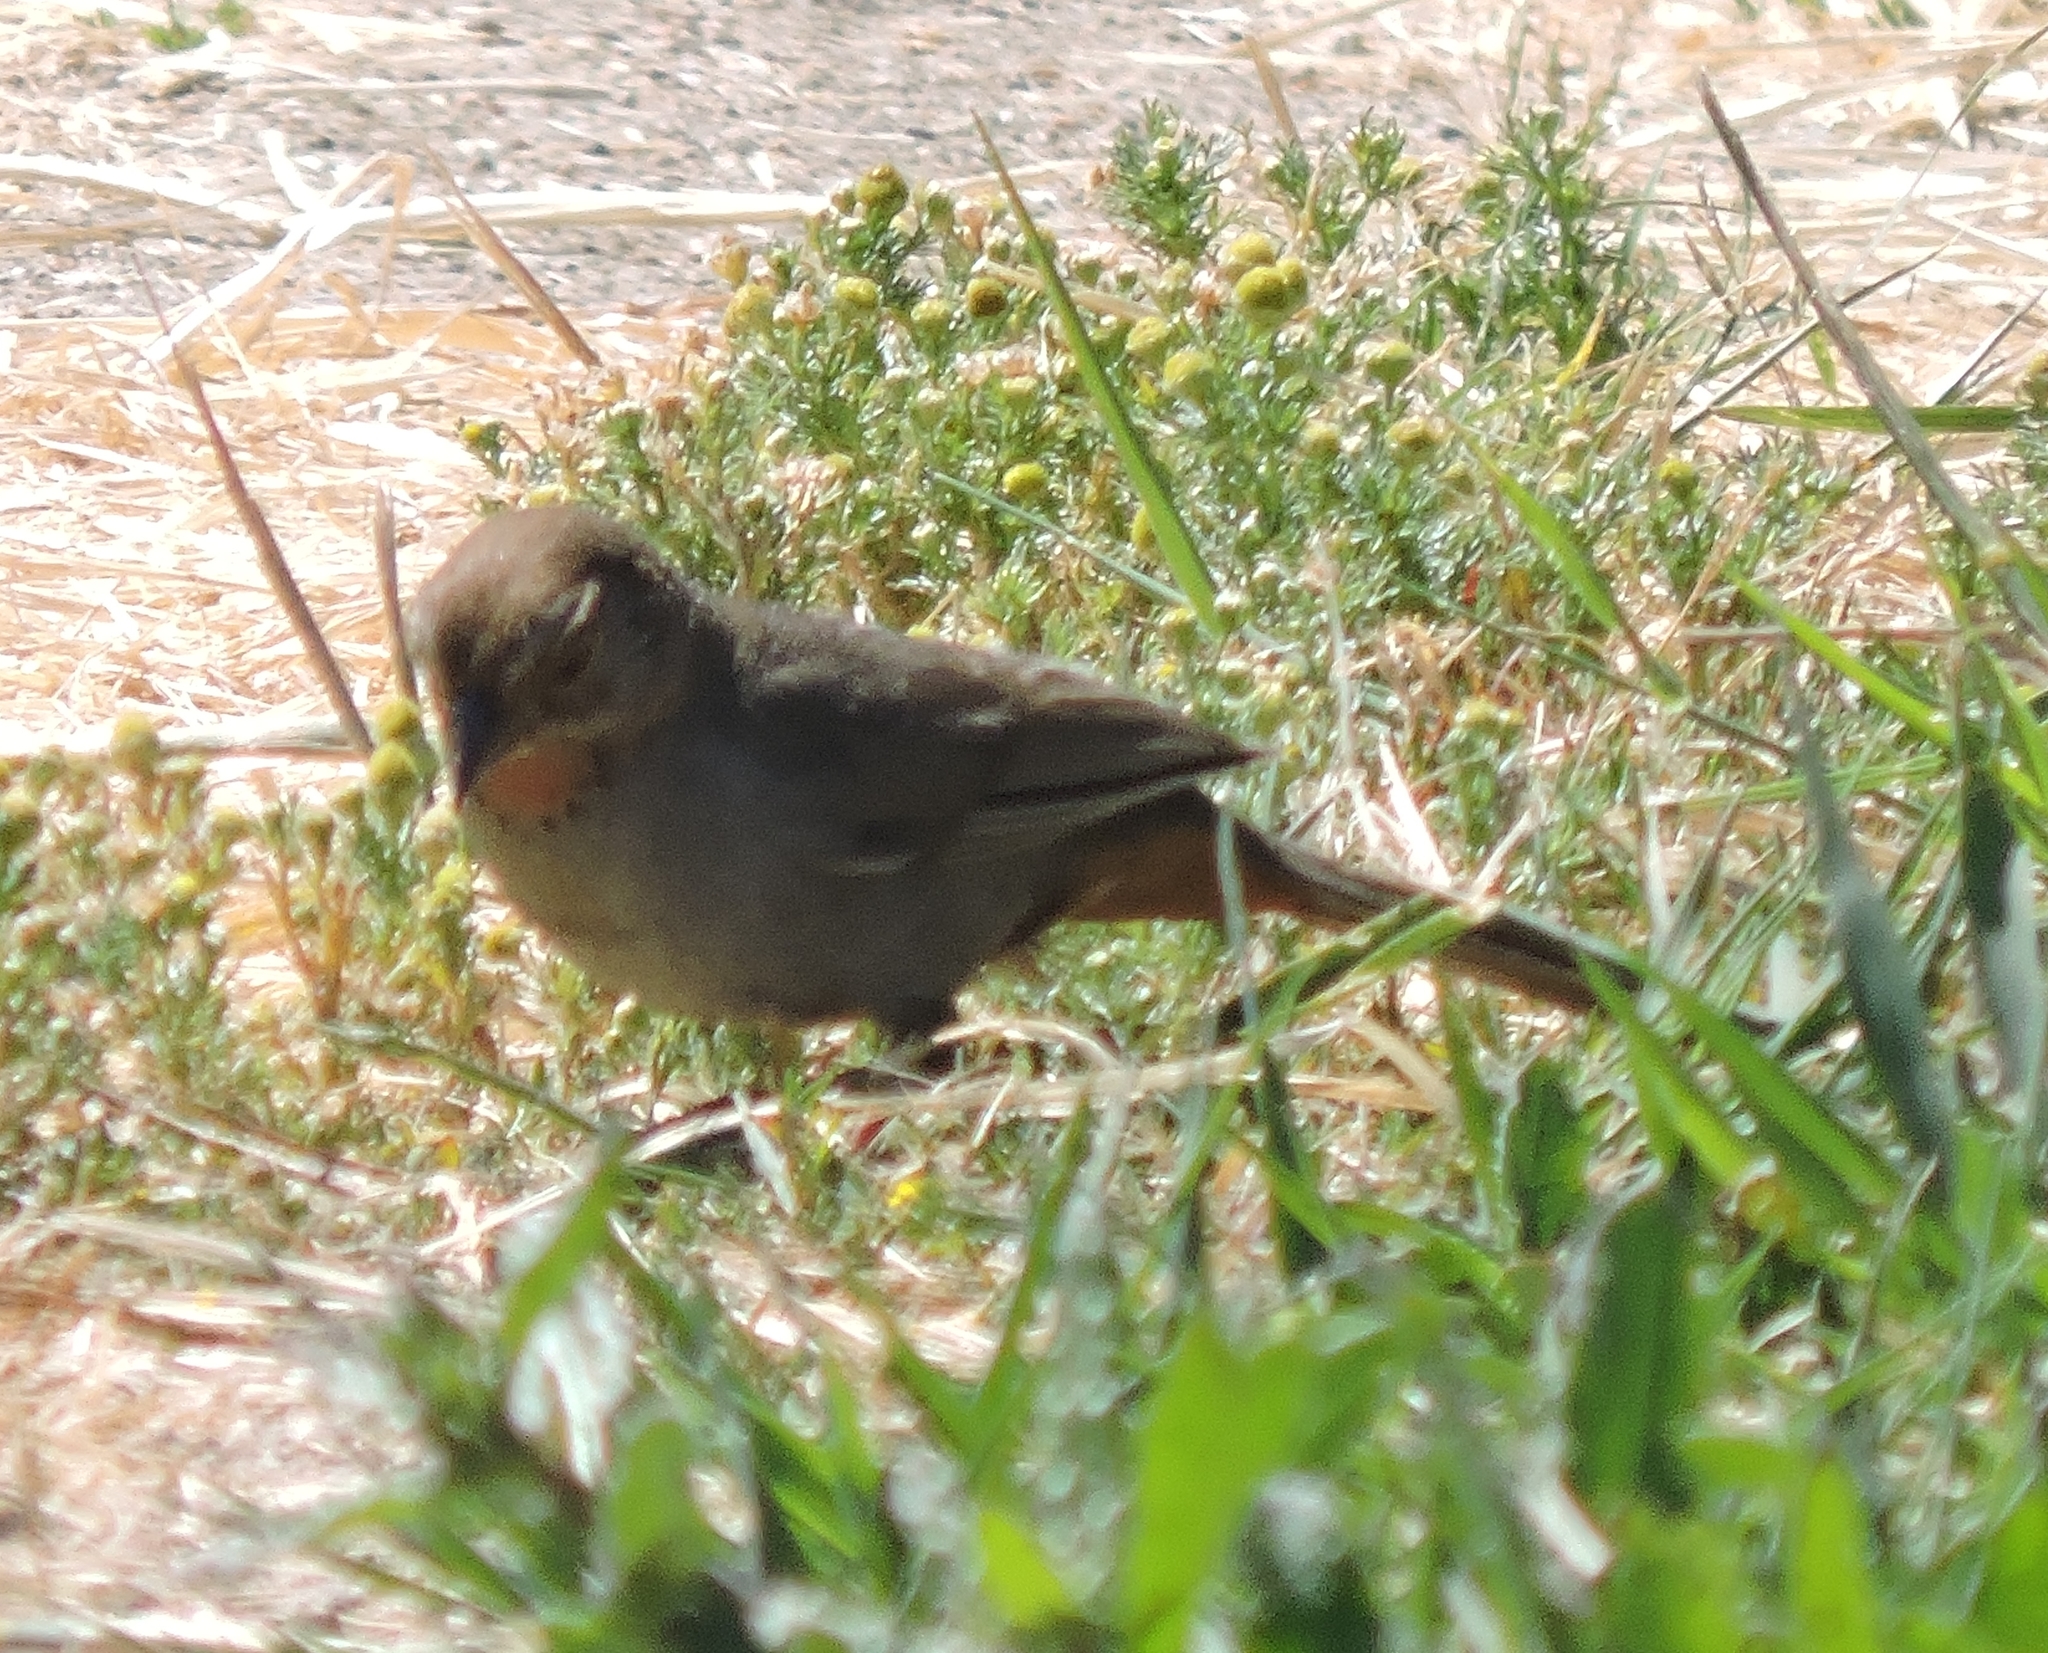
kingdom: Animalia
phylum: Chordata
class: Aves
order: Passeriformes
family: Passerellidae
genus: Melozone
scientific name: Melozone crissalis
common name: California towhee
